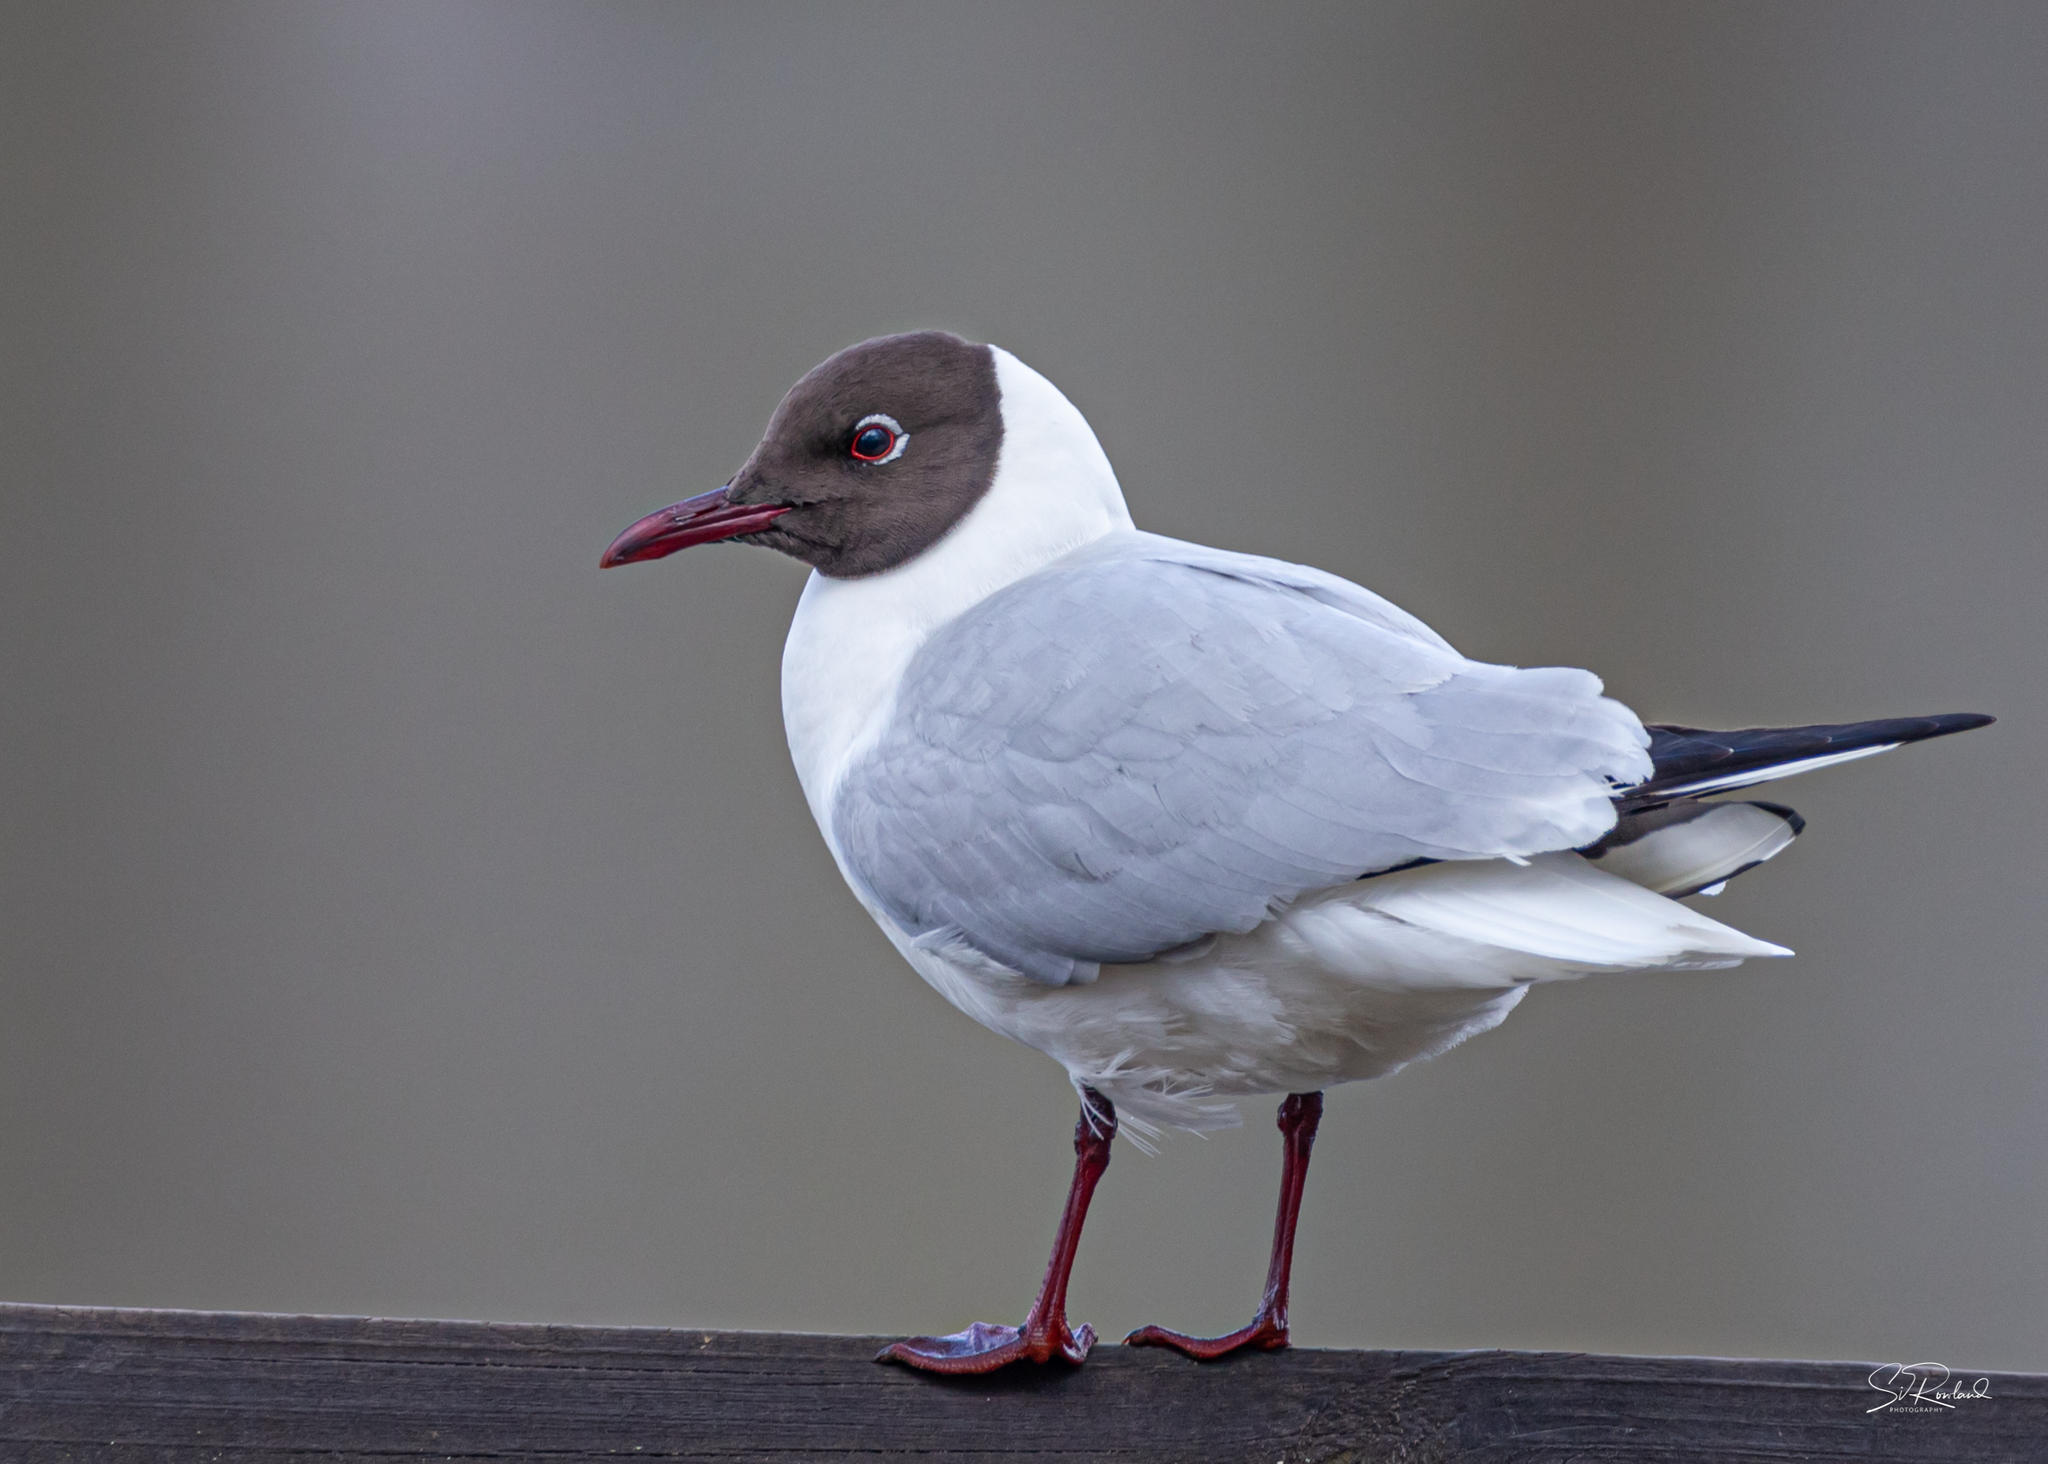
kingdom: Animalia
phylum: Chordata
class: Aves
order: Charadriiformes
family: Laridae
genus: Chroicocephalus
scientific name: Chroicocephalus ridibundus
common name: Black-headed gull
